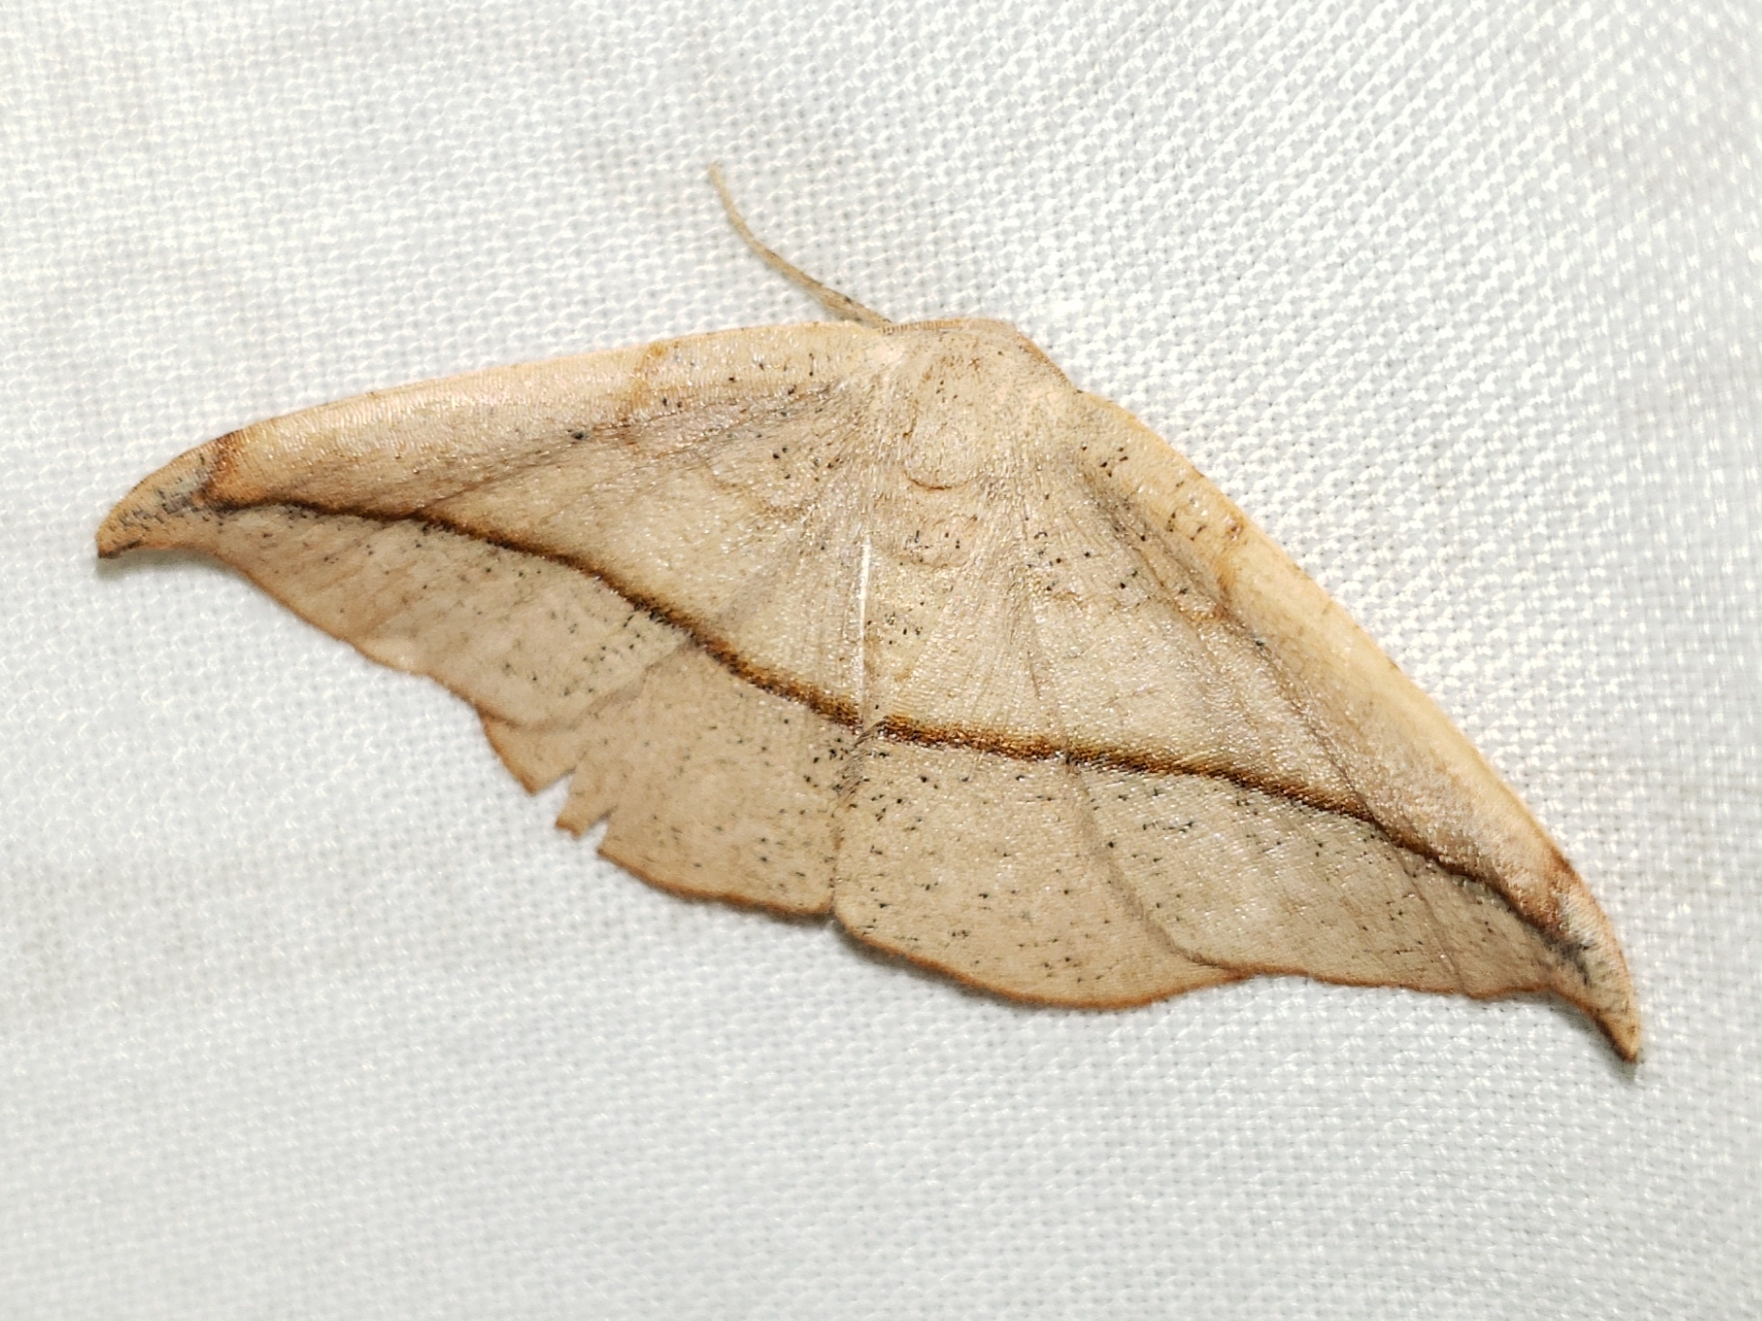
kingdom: Animalia
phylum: Arthropoda
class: Insecta
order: Lepidoptera
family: Geometridae
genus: Patalene
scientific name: Patalene olyzonaria
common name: Juniper geometer moth
